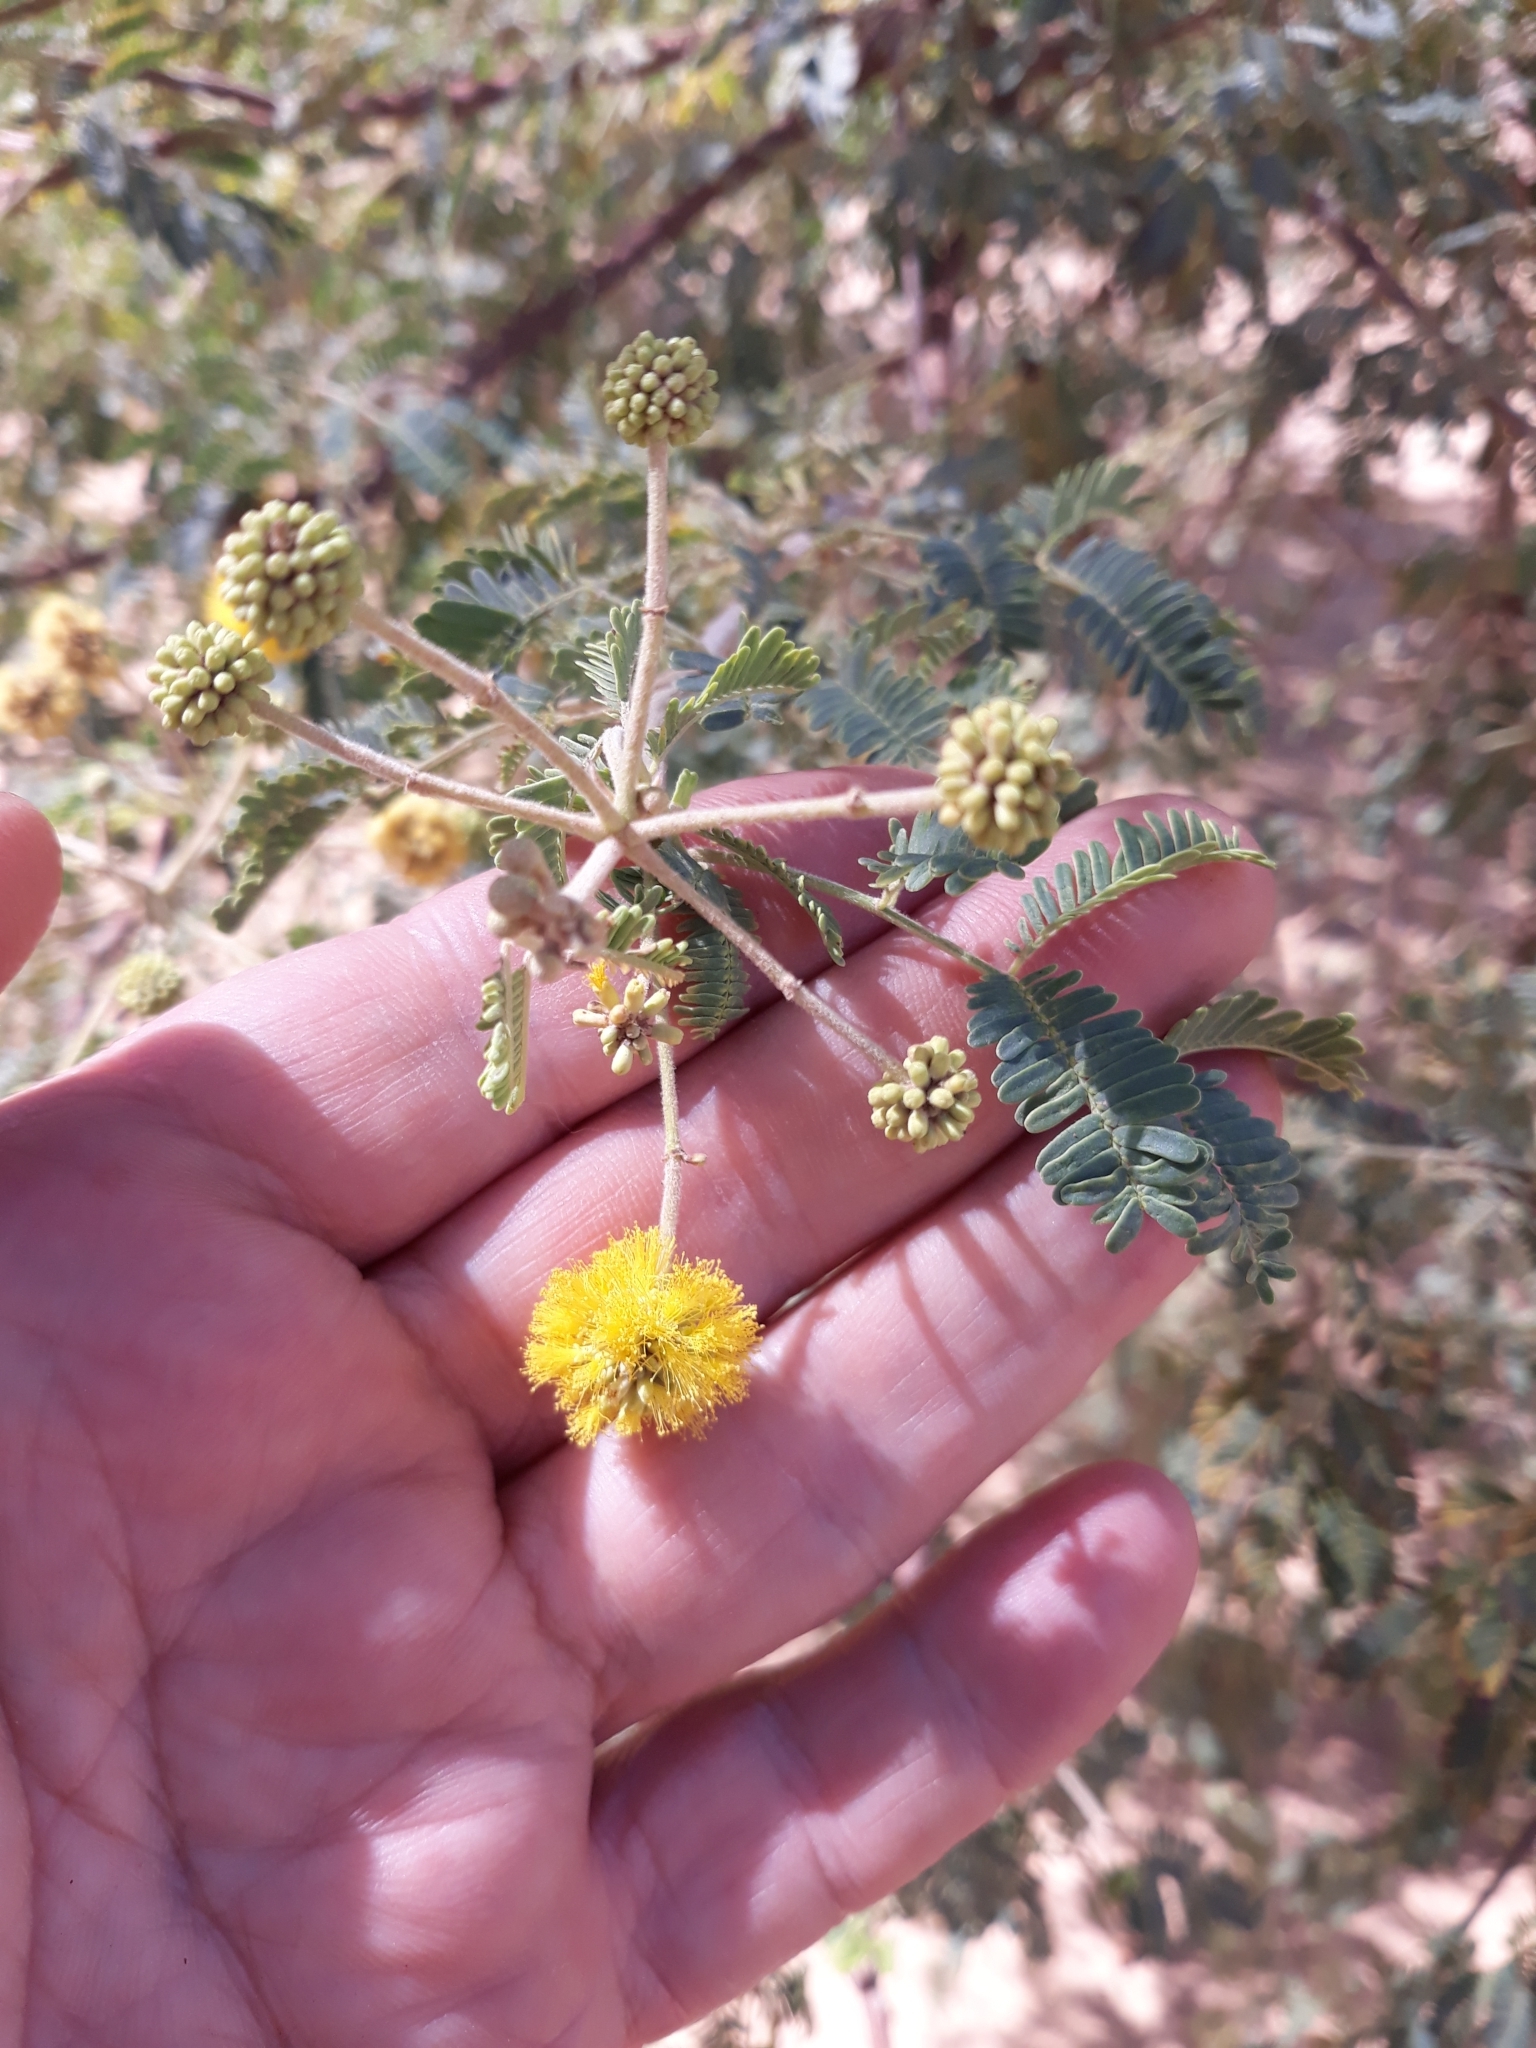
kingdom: Plantae
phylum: Tracheophyta
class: Magnoliopsida
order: Fabales
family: Fabaceae
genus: Vachellia
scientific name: Vachellia nilotica
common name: Arabic gumtree
